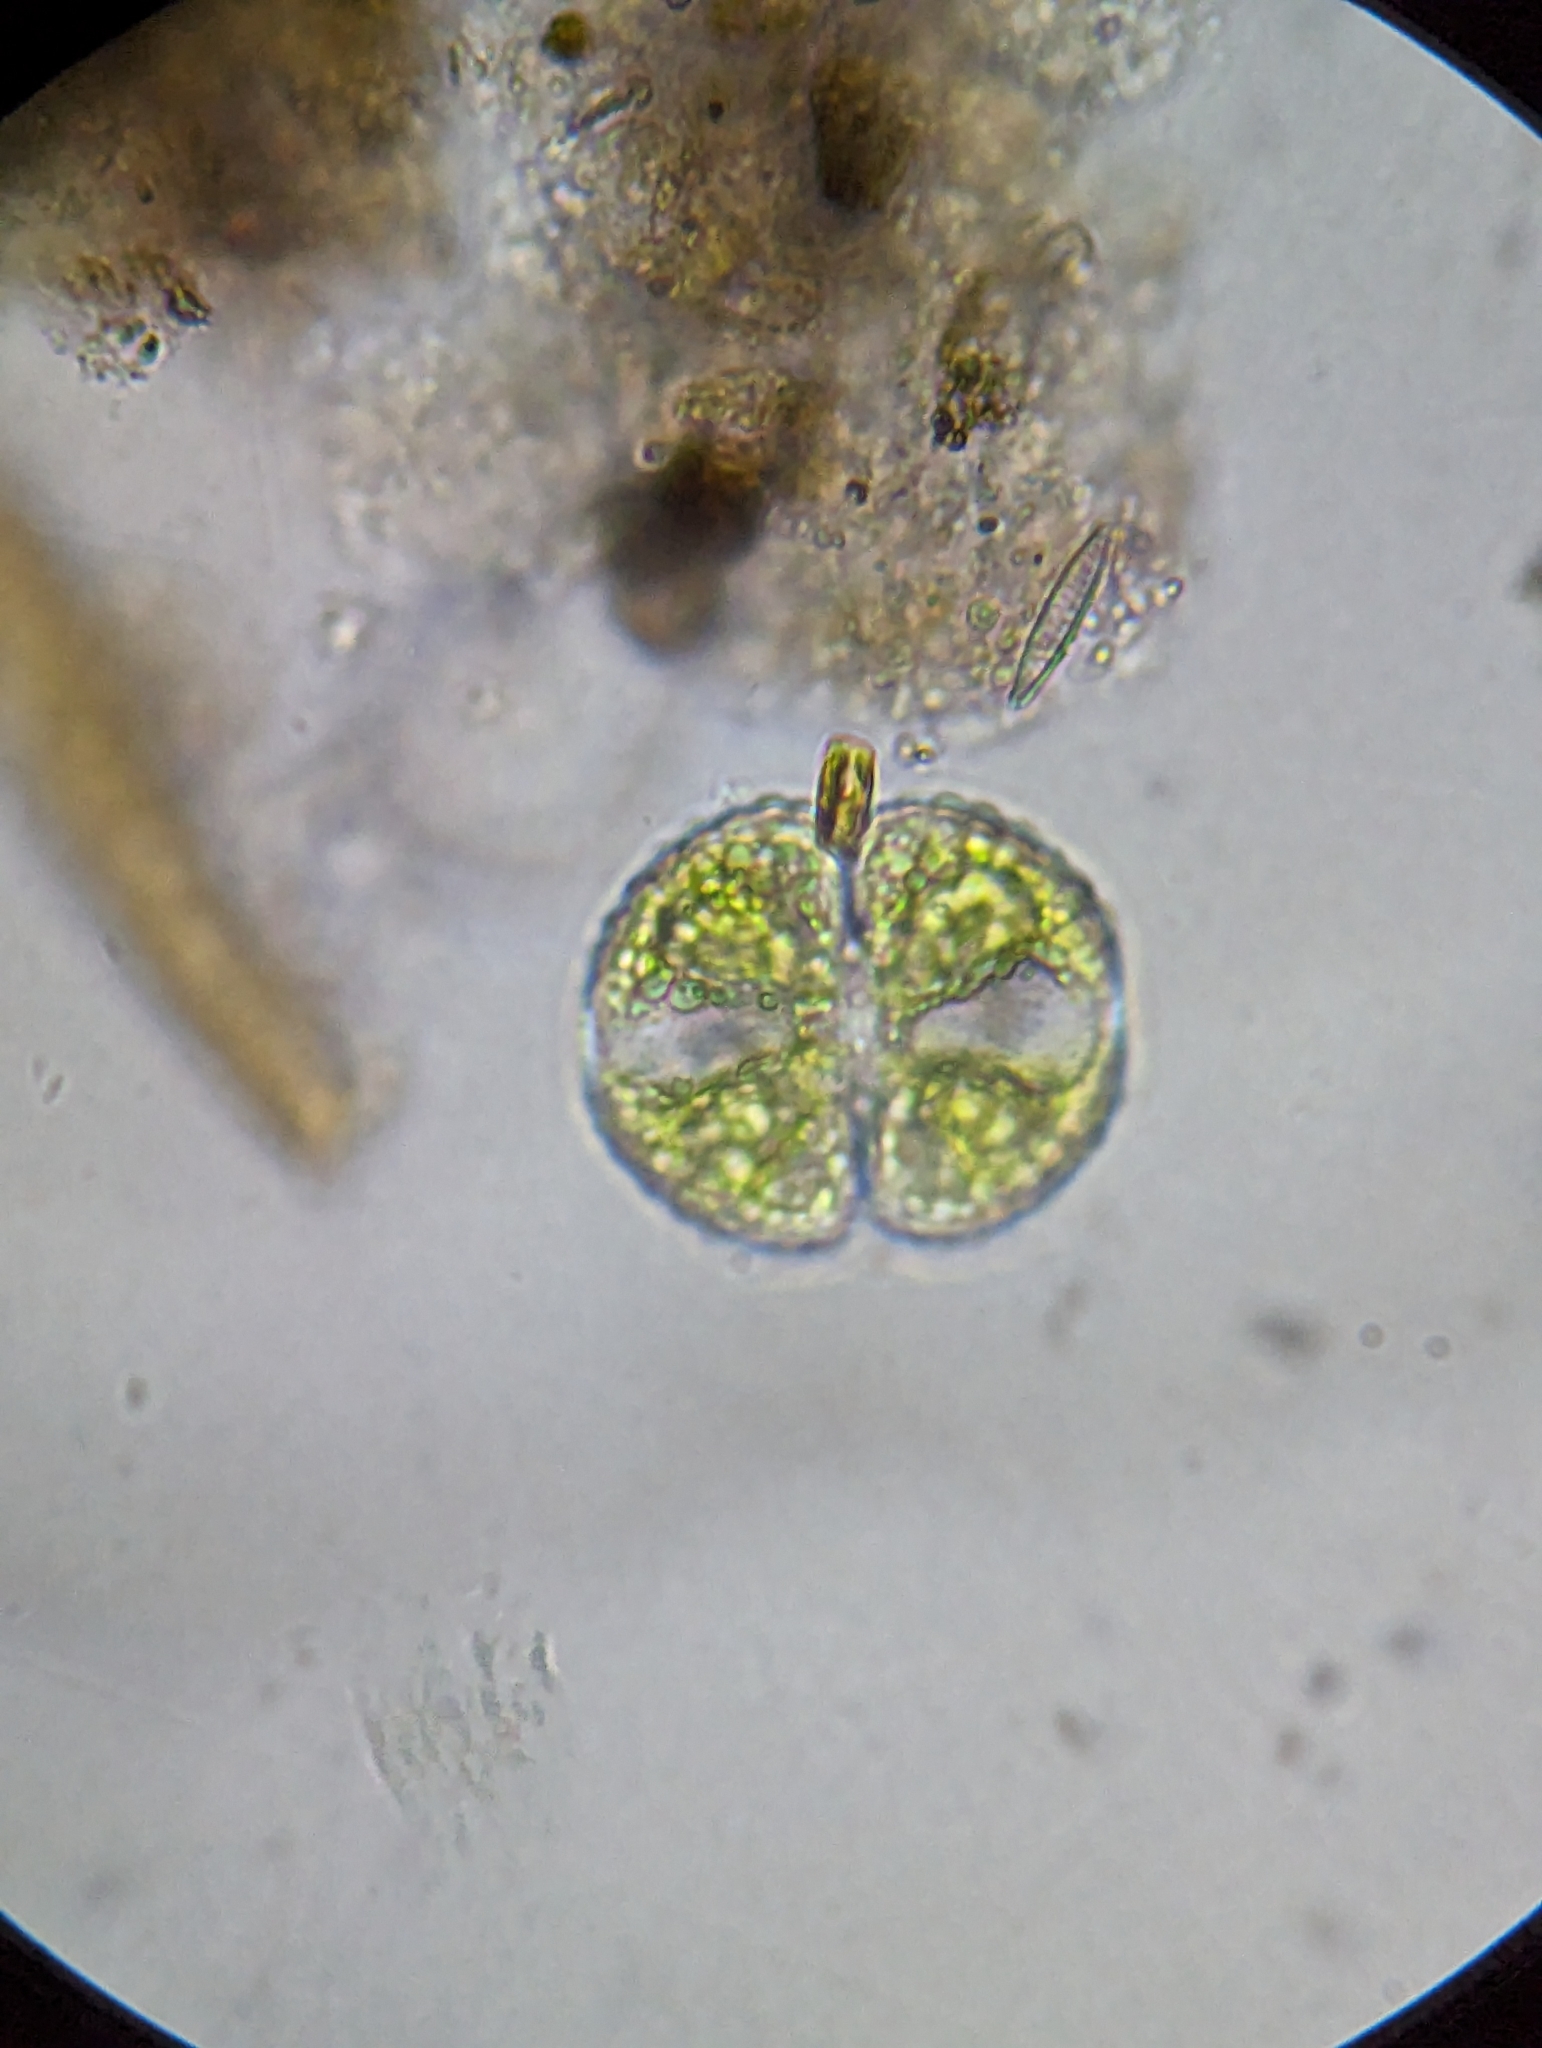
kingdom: Plantae
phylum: Charophyta
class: Zygnematophyceae
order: Zygnematales
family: Desmidiaceae
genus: Cosmarium
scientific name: Cosmarium botrytis
